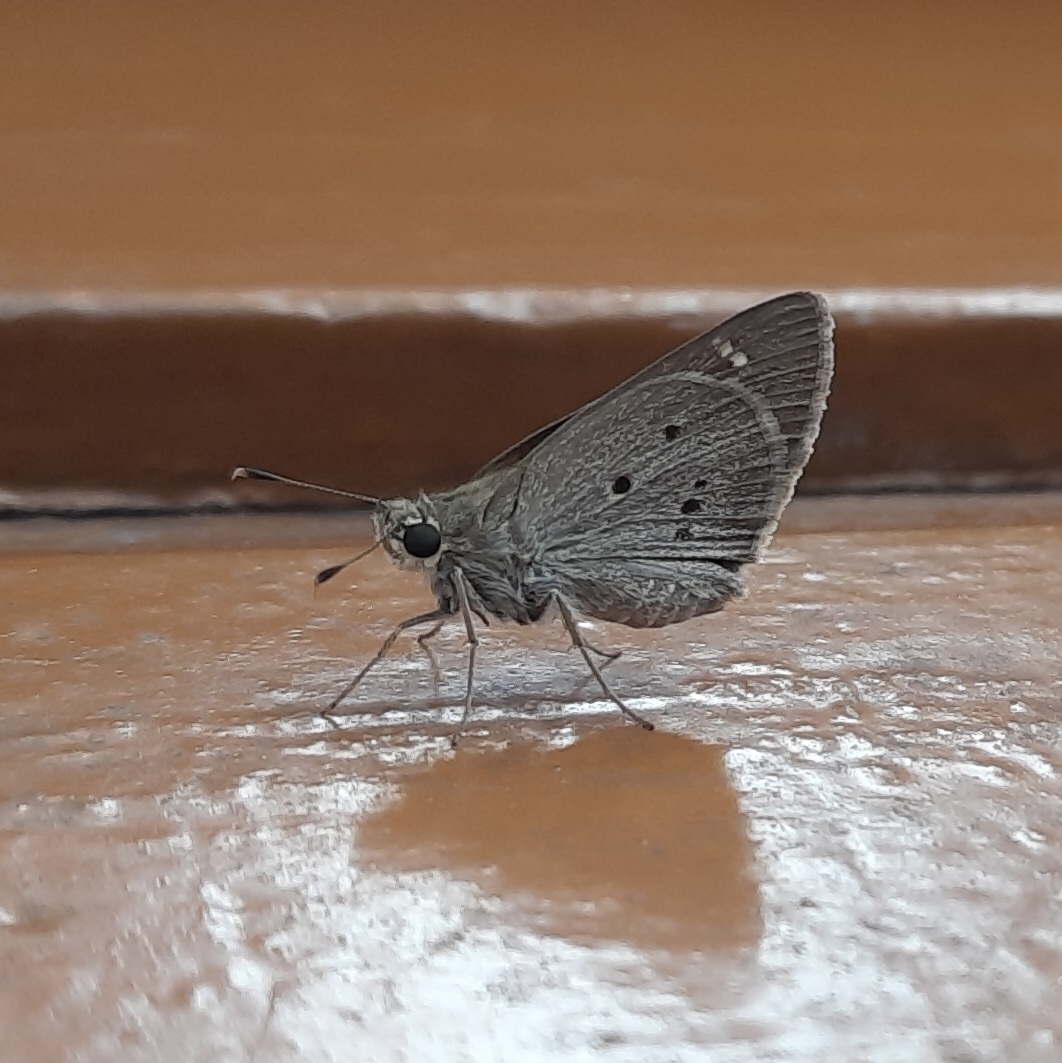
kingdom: Animalia
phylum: Arthropoda
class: Insecta
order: Lepidoptera
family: Hesperiidae
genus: Suastus
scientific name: Suastus gremius
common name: Indian palm bob
